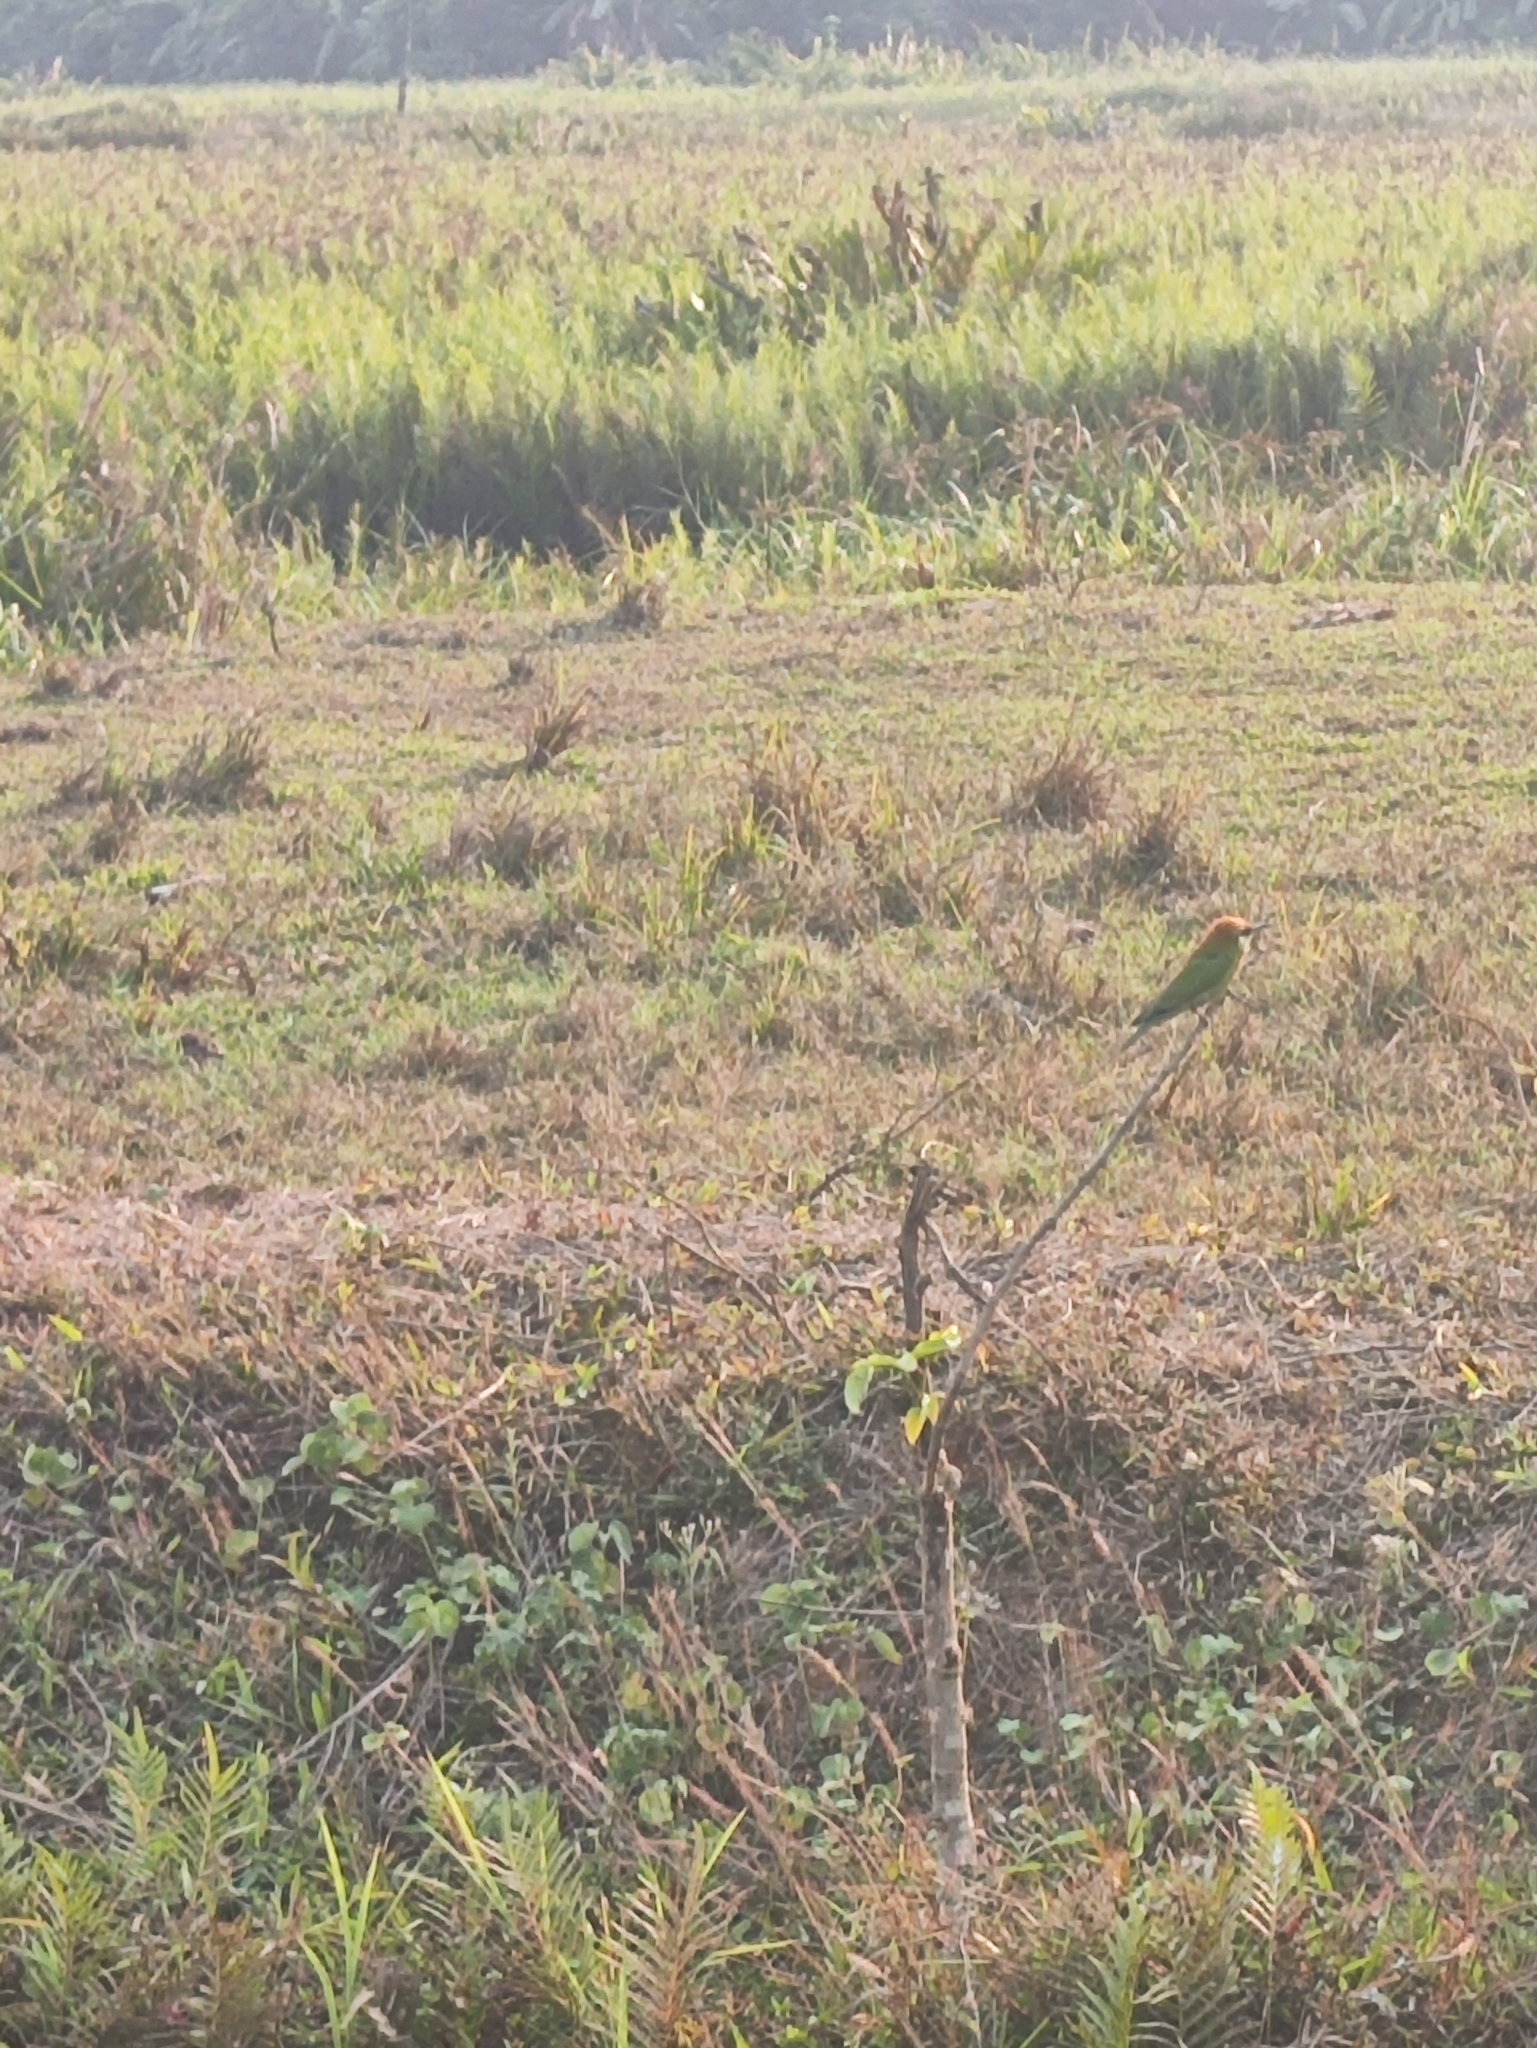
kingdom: Animalia
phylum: Chordata
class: Aves
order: Coraciiformes
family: Meropidae
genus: Merops
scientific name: Merops orientalis
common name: Green bee-eater
